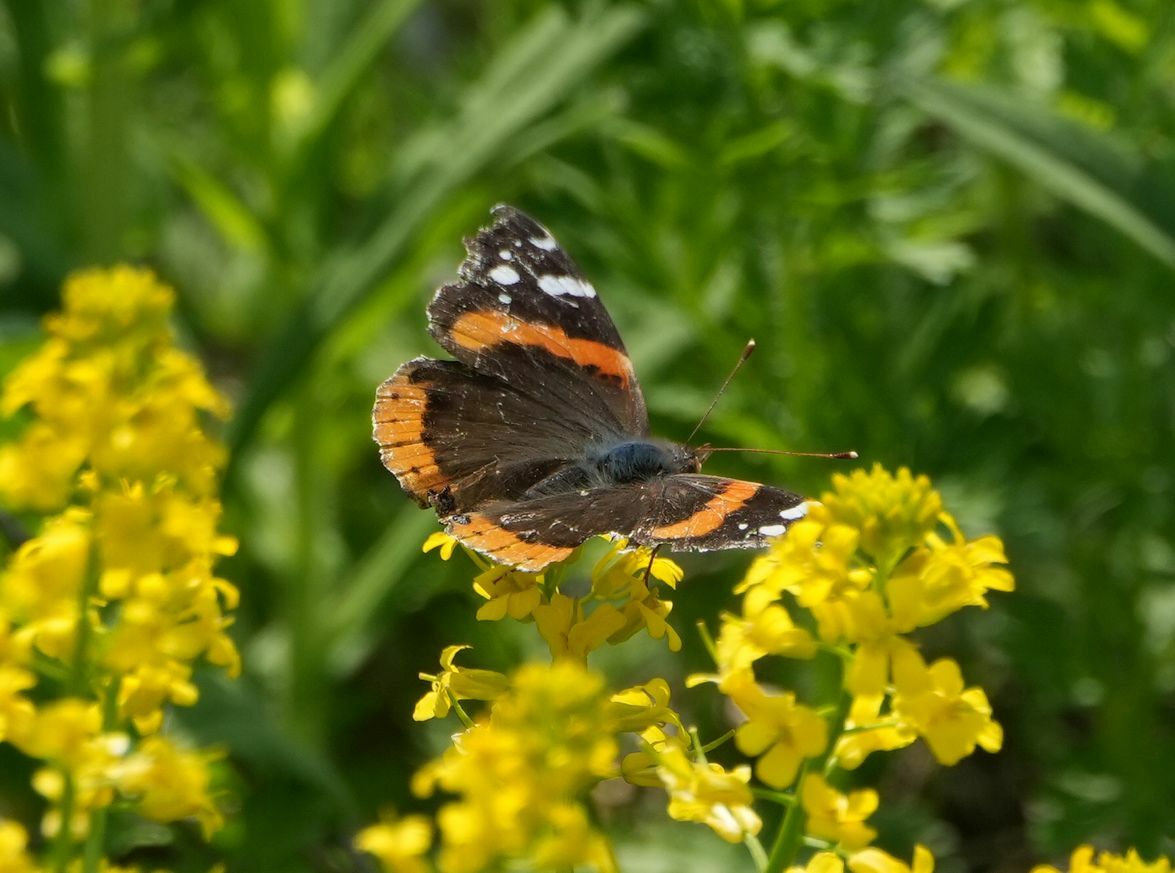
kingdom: Animalia
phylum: Arthropoda
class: Insecta
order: Lepidoptera
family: Nymphalidae
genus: Vanessa
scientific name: Vanessa atalanta
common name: Red admiral
